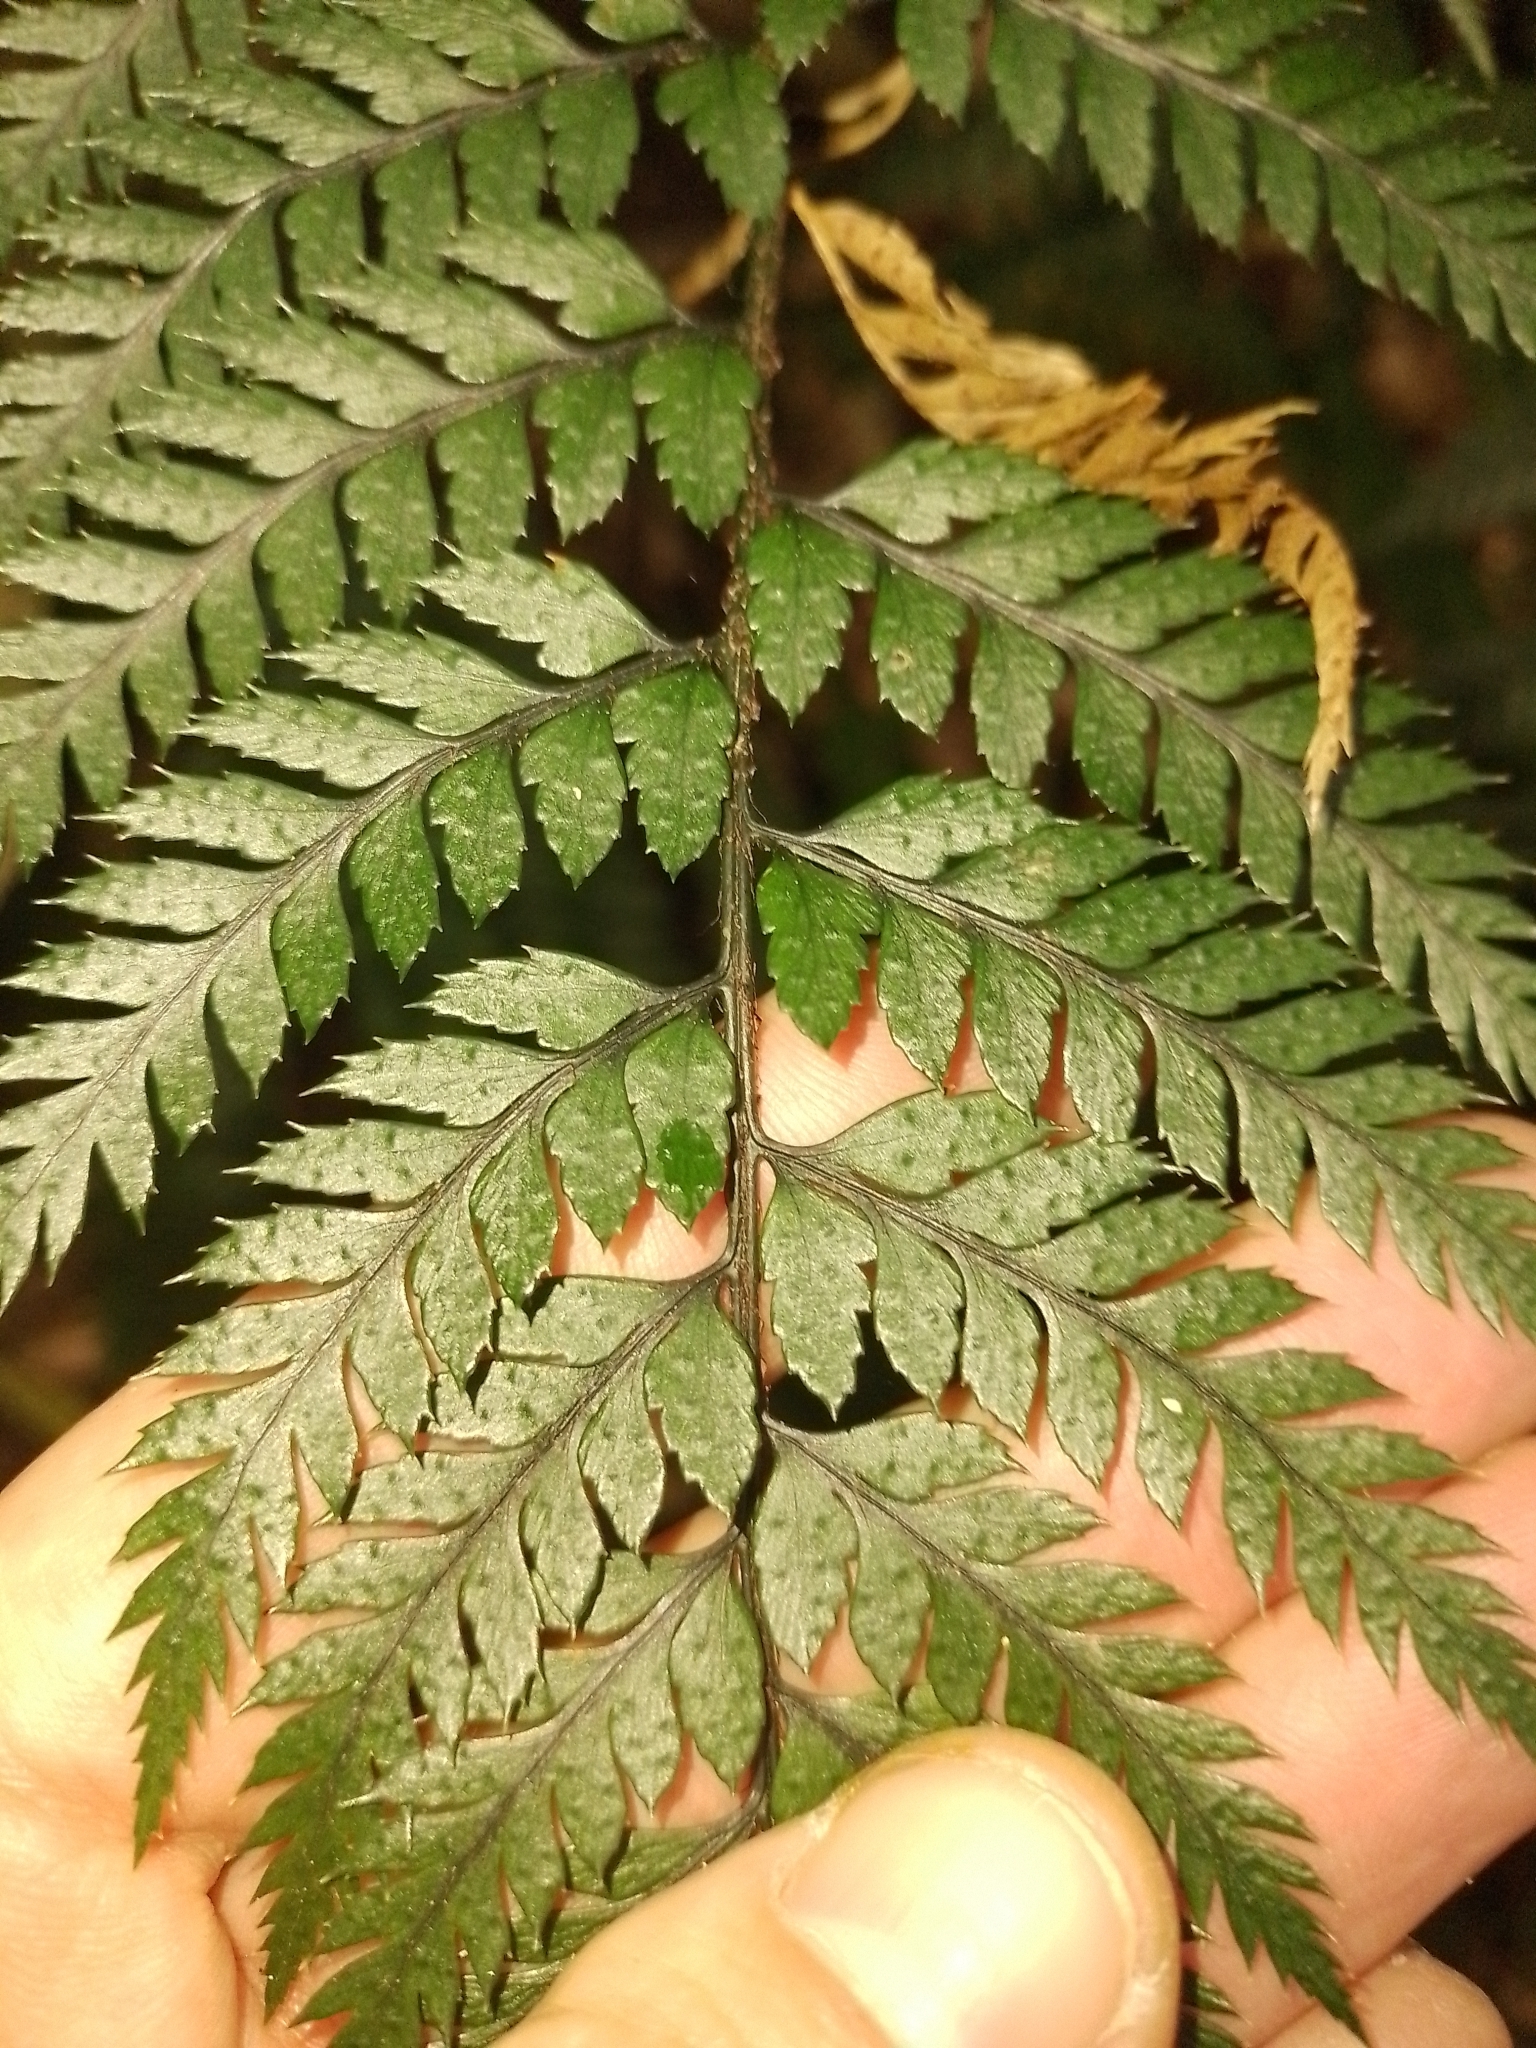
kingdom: Plantae
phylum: Tracheophyta
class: Polypodiopsida
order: Polypodiales
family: Dryopteridaceae
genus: Polystichum
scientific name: Polystichum neozelandicum
